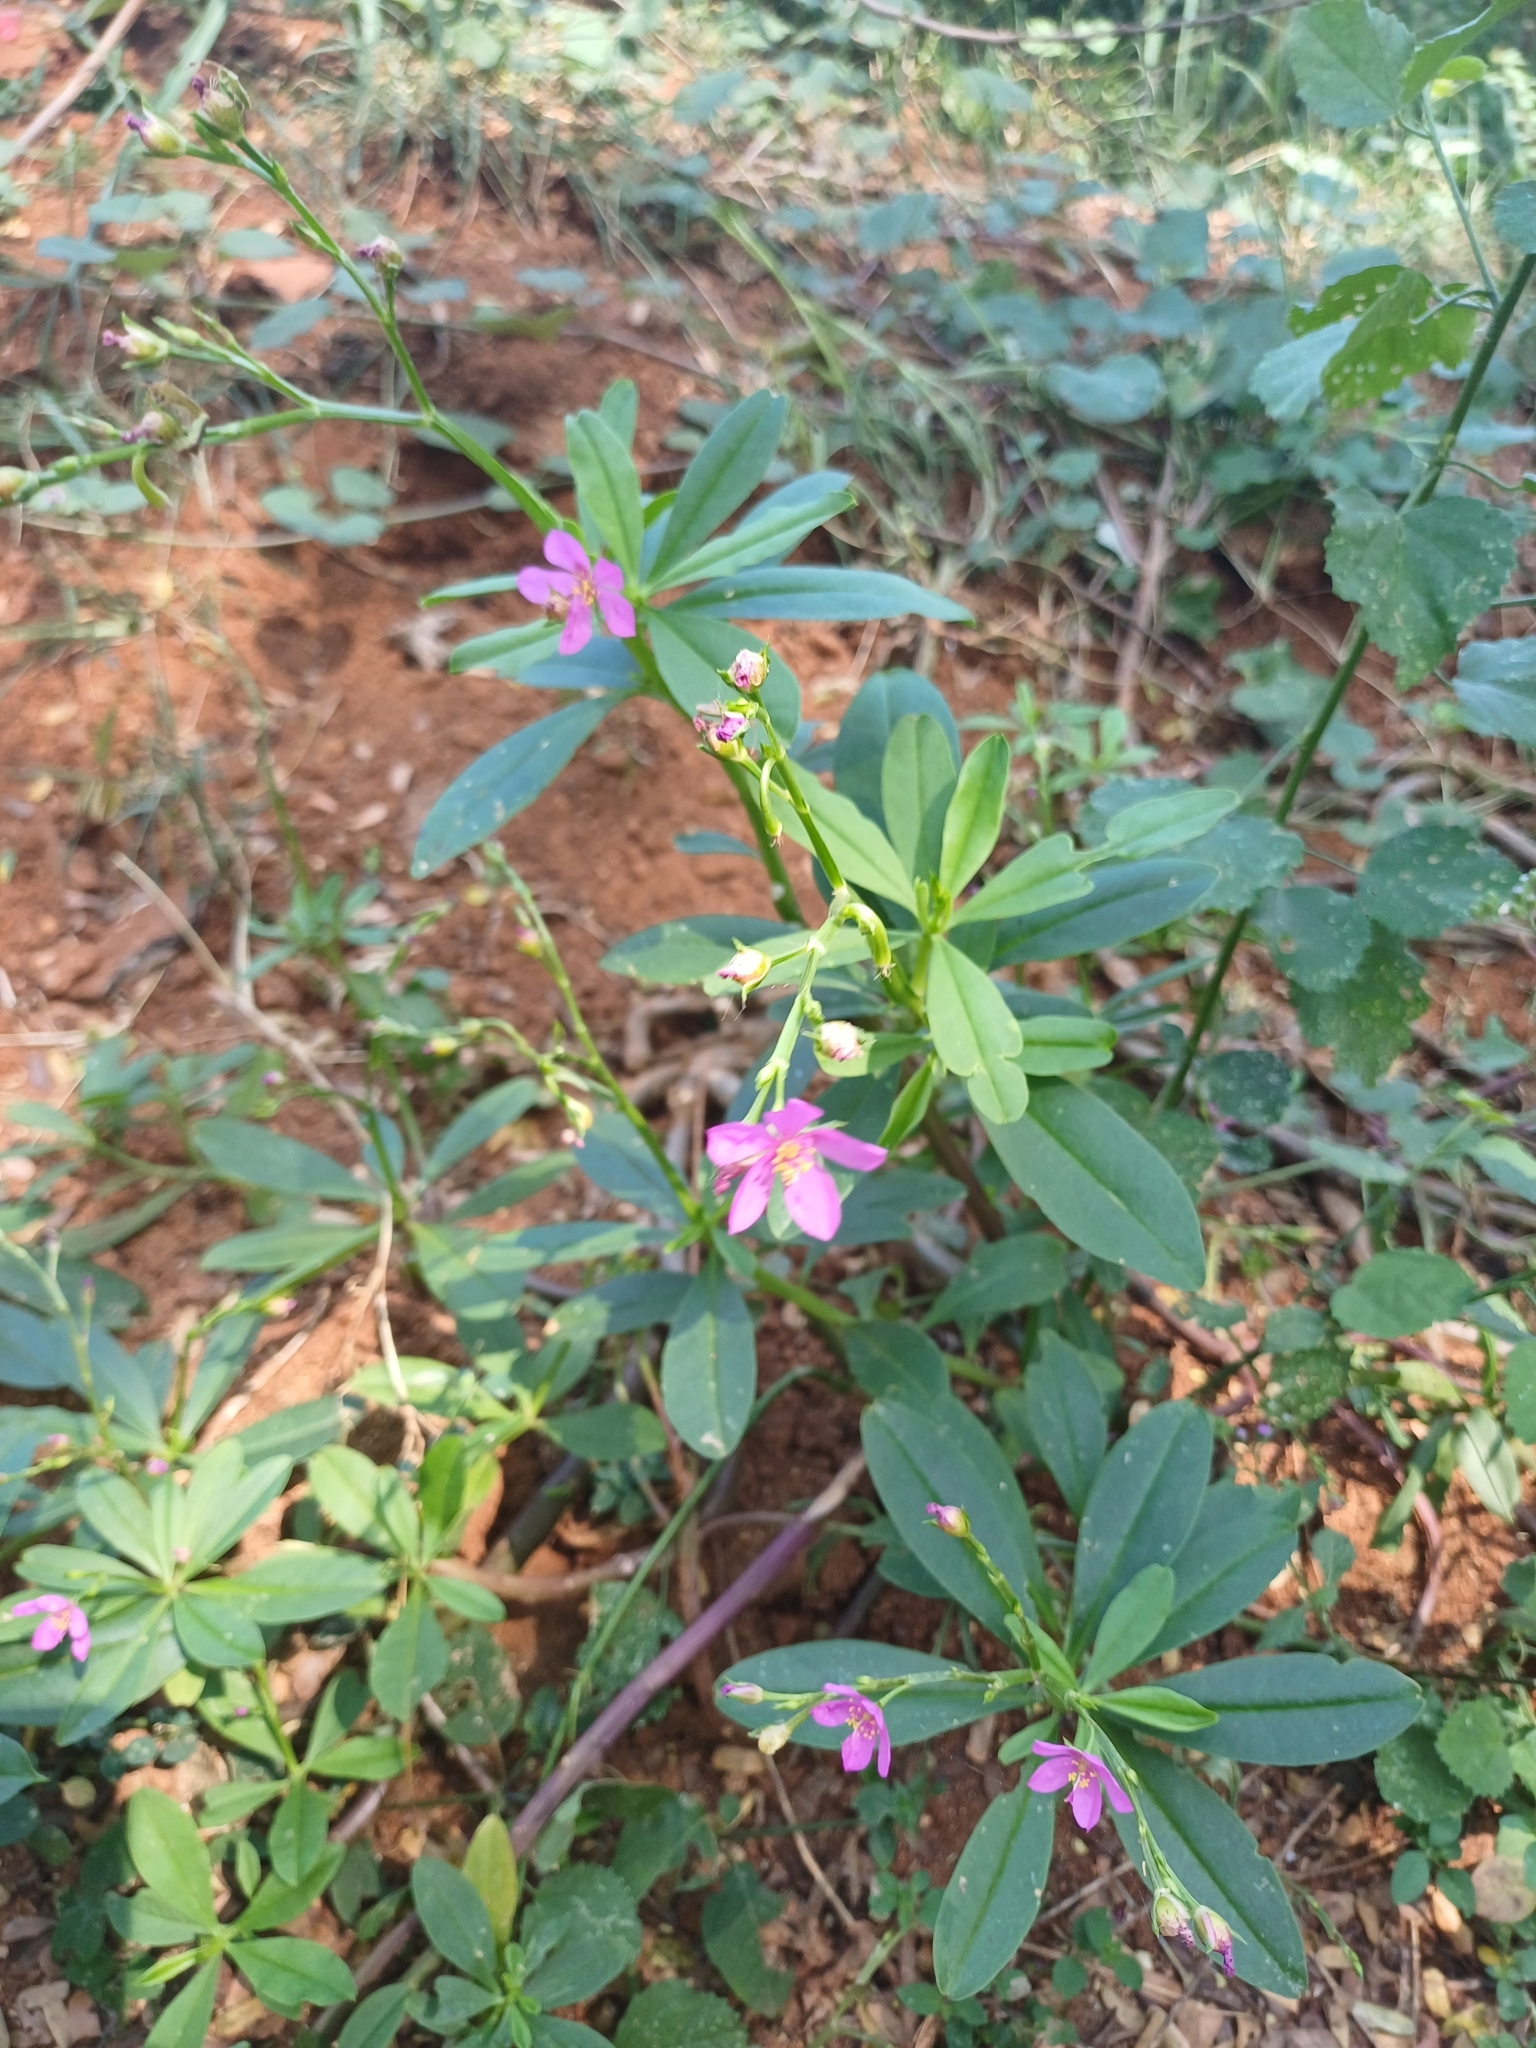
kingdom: Plantae
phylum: Tracheophyta
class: Magnoliopsida
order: Caryophyllales
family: Talinaceae
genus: Talinum
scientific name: Talinum fruticosum
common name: Verdolaga-francesa
